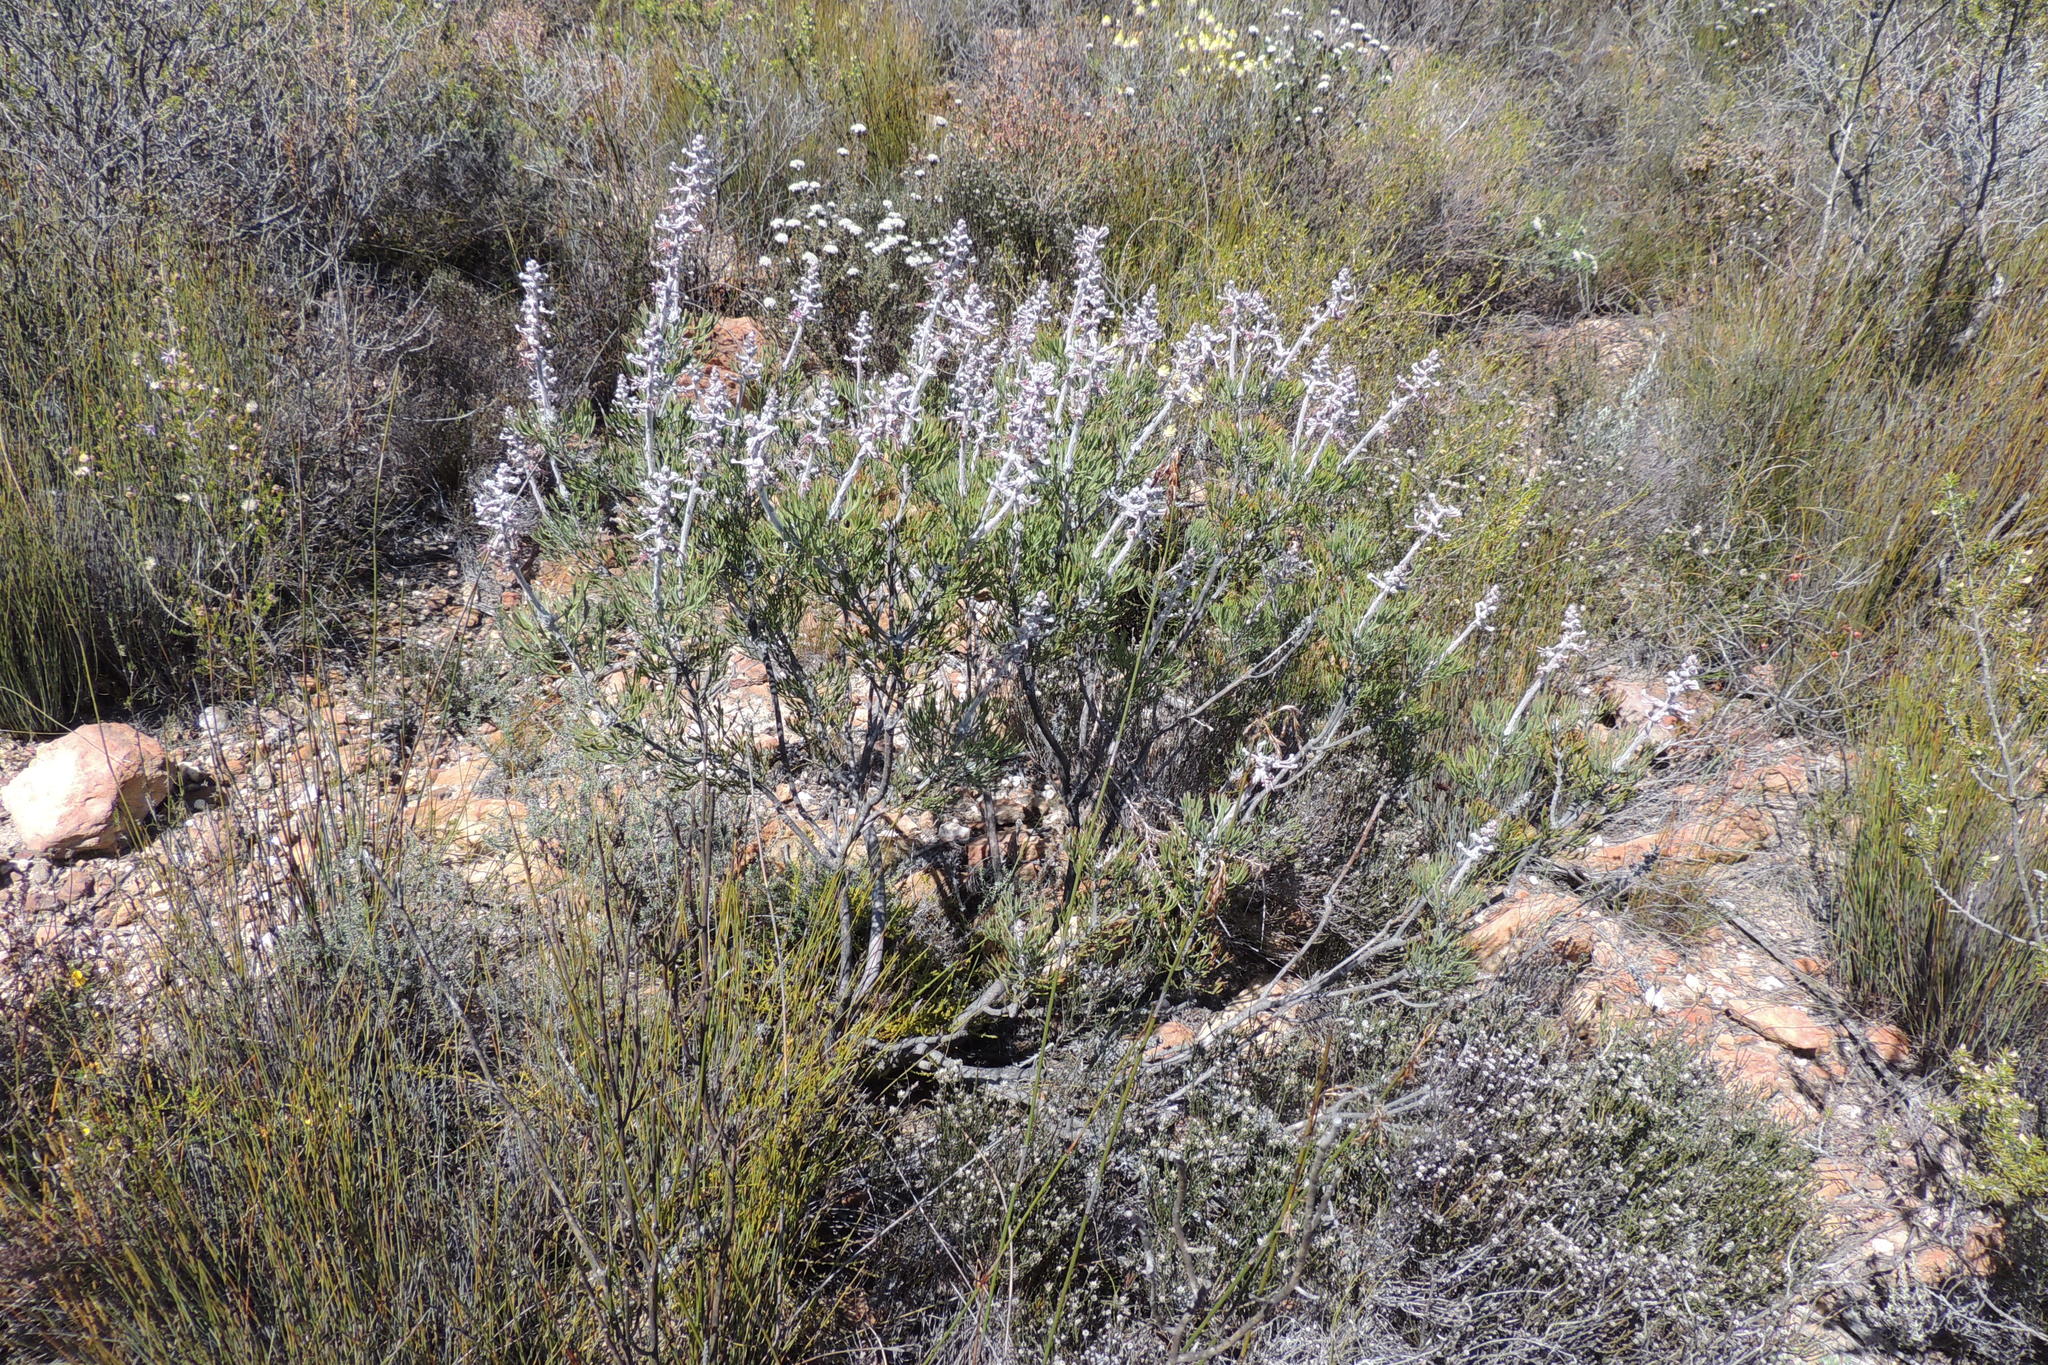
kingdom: Plantae
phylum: Tracheophyta
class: Magnoliopsida
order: Proteales
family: Proteaceae
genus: Paranomus
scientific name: Paranomus dispersus
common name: Long-head sceptre
